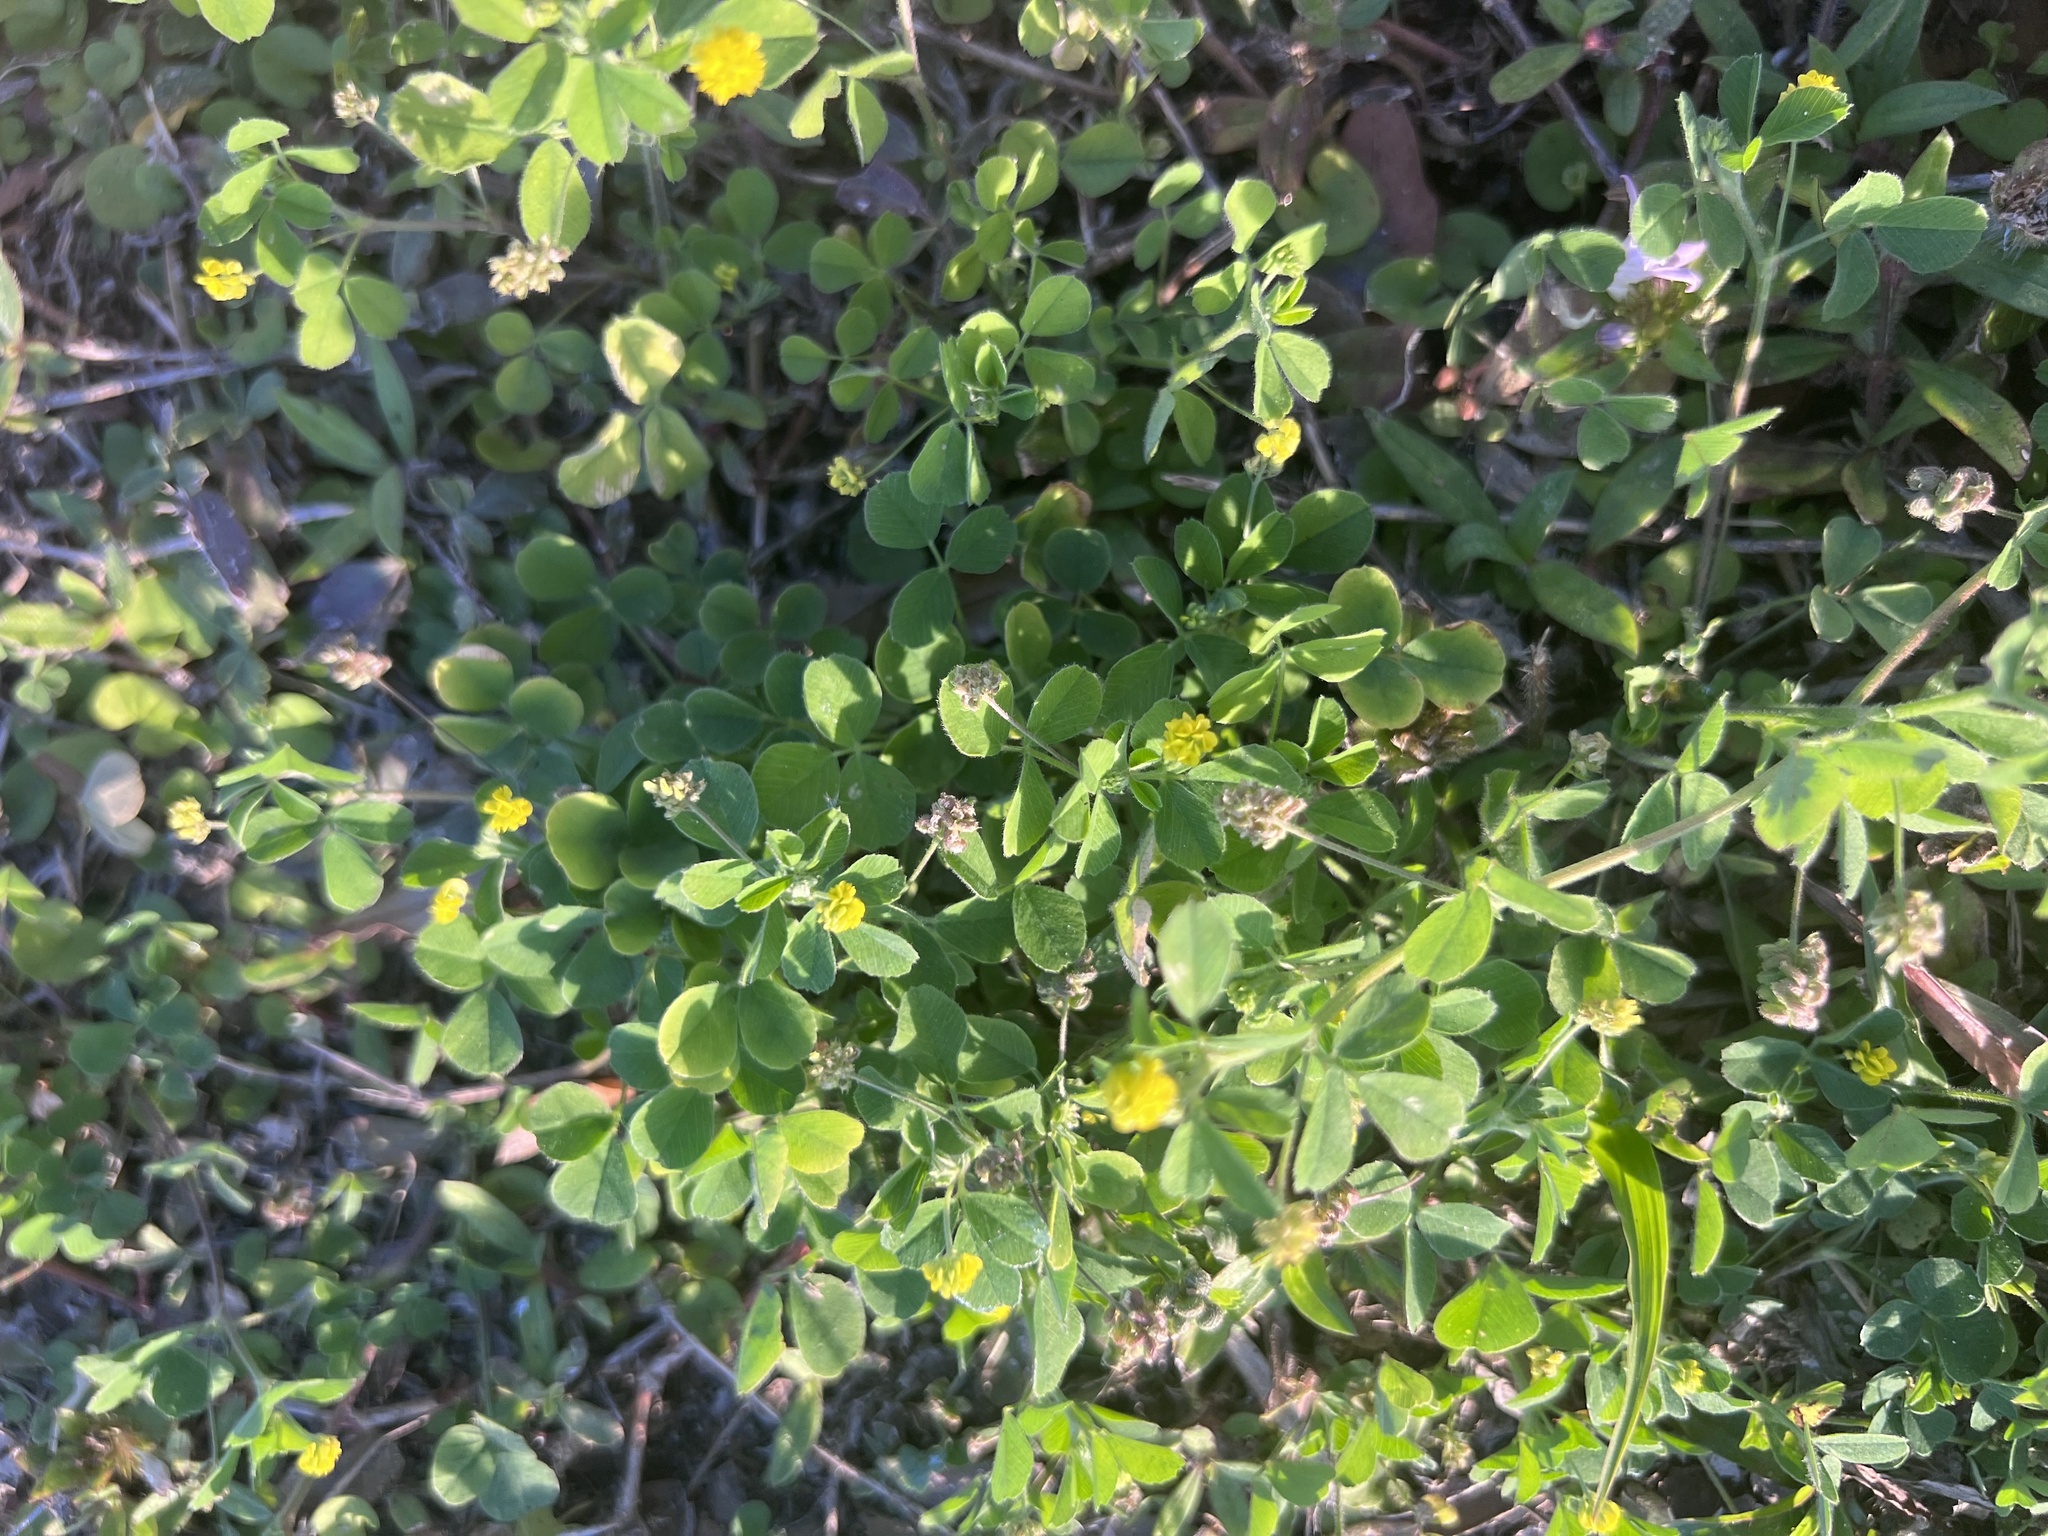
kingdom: Plantae
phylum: Tracheophyta
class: Magnoliopsida
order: Fabales
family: Fabaceae
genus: Medicago
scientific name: Medicago lupulina
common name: Black medick
